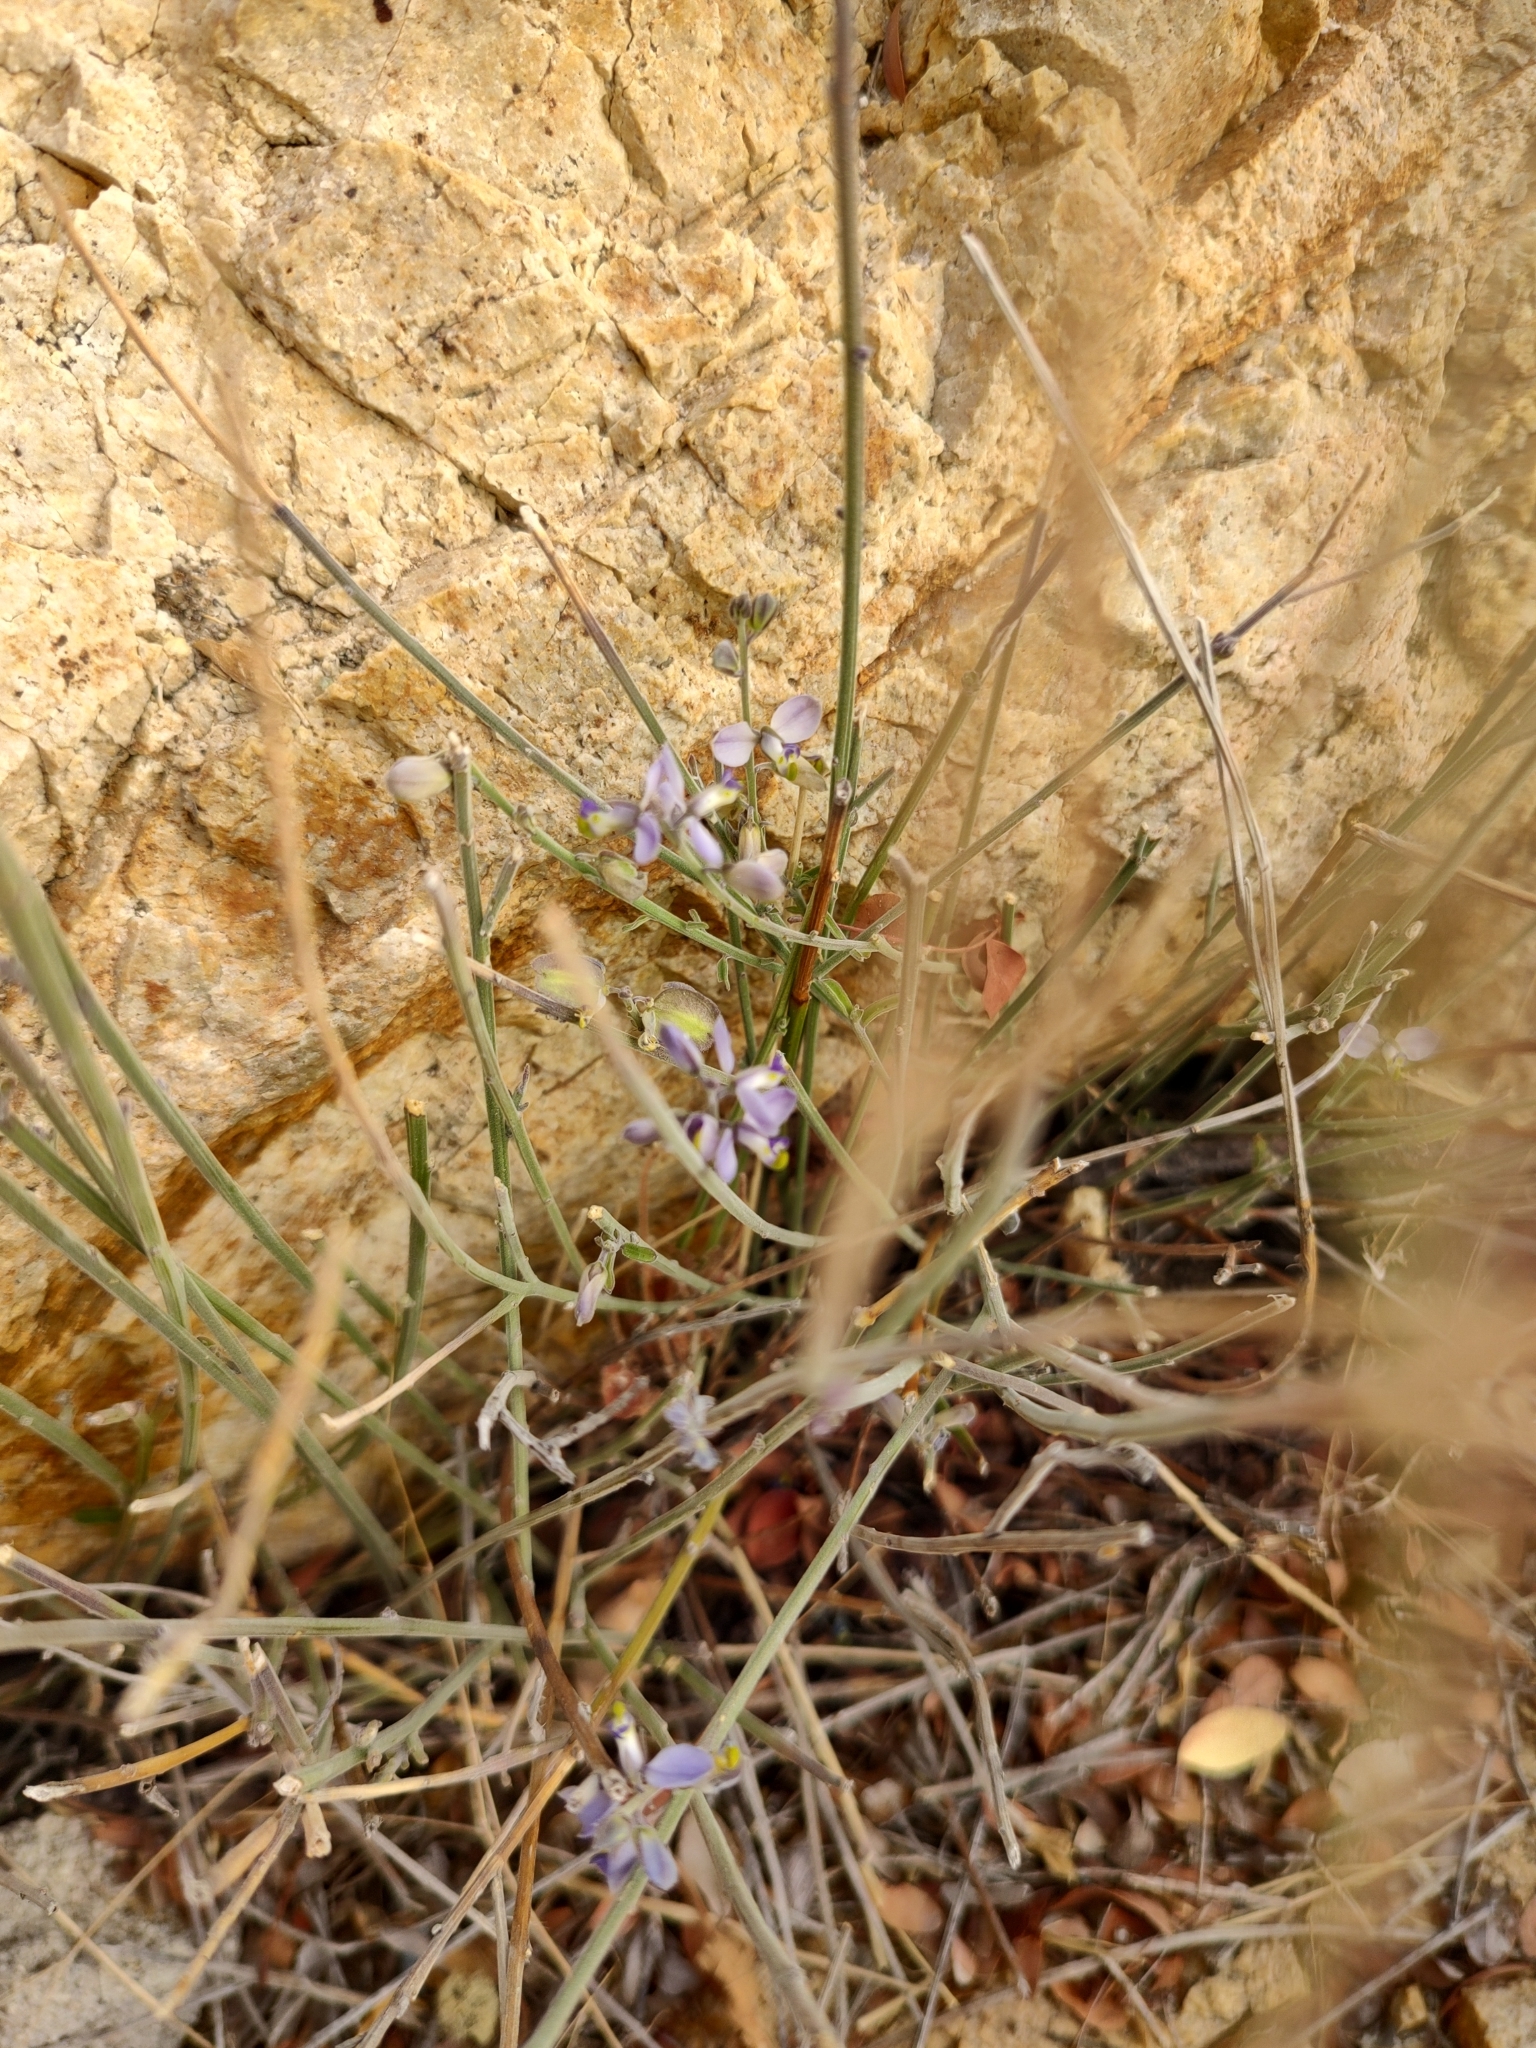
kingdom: Plantae
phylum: Tracheophyta
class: Magnoliopsida
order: Fabales
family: Polygalaceae
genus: Polygala
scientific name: Polygala magdalenae
